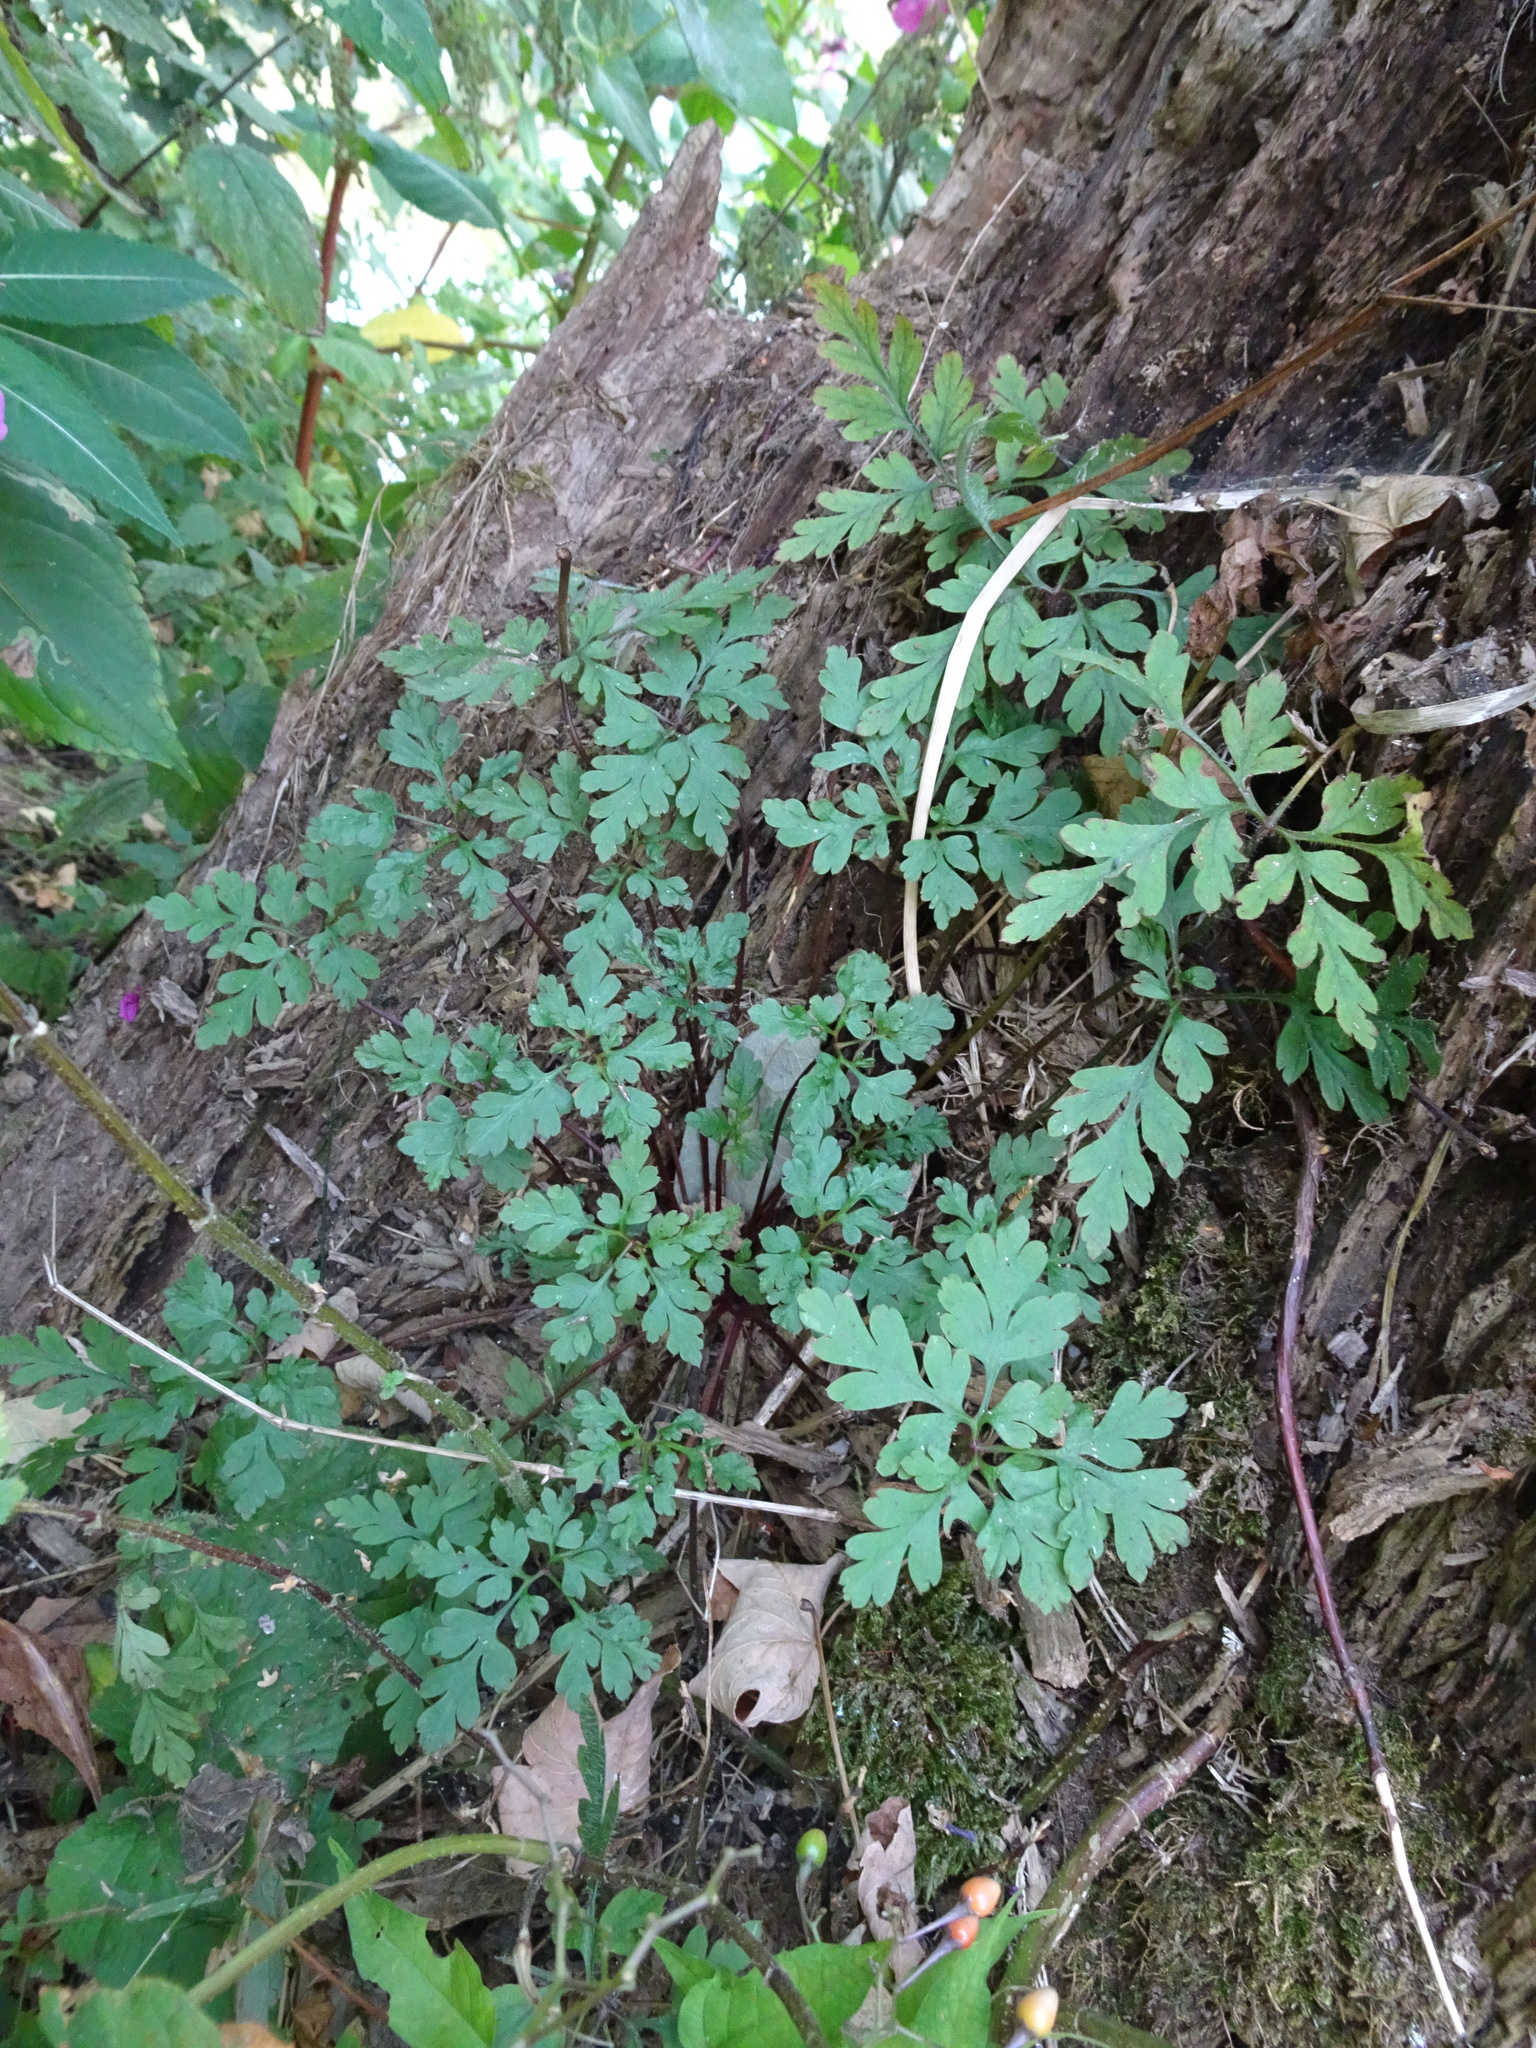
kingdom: Plantae
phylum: Tracheophyta
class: Magnoliopsida
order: Geraniales
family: Geraniaceae
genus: Geranium
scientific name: Geranium robertianum
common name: Herb-robert
